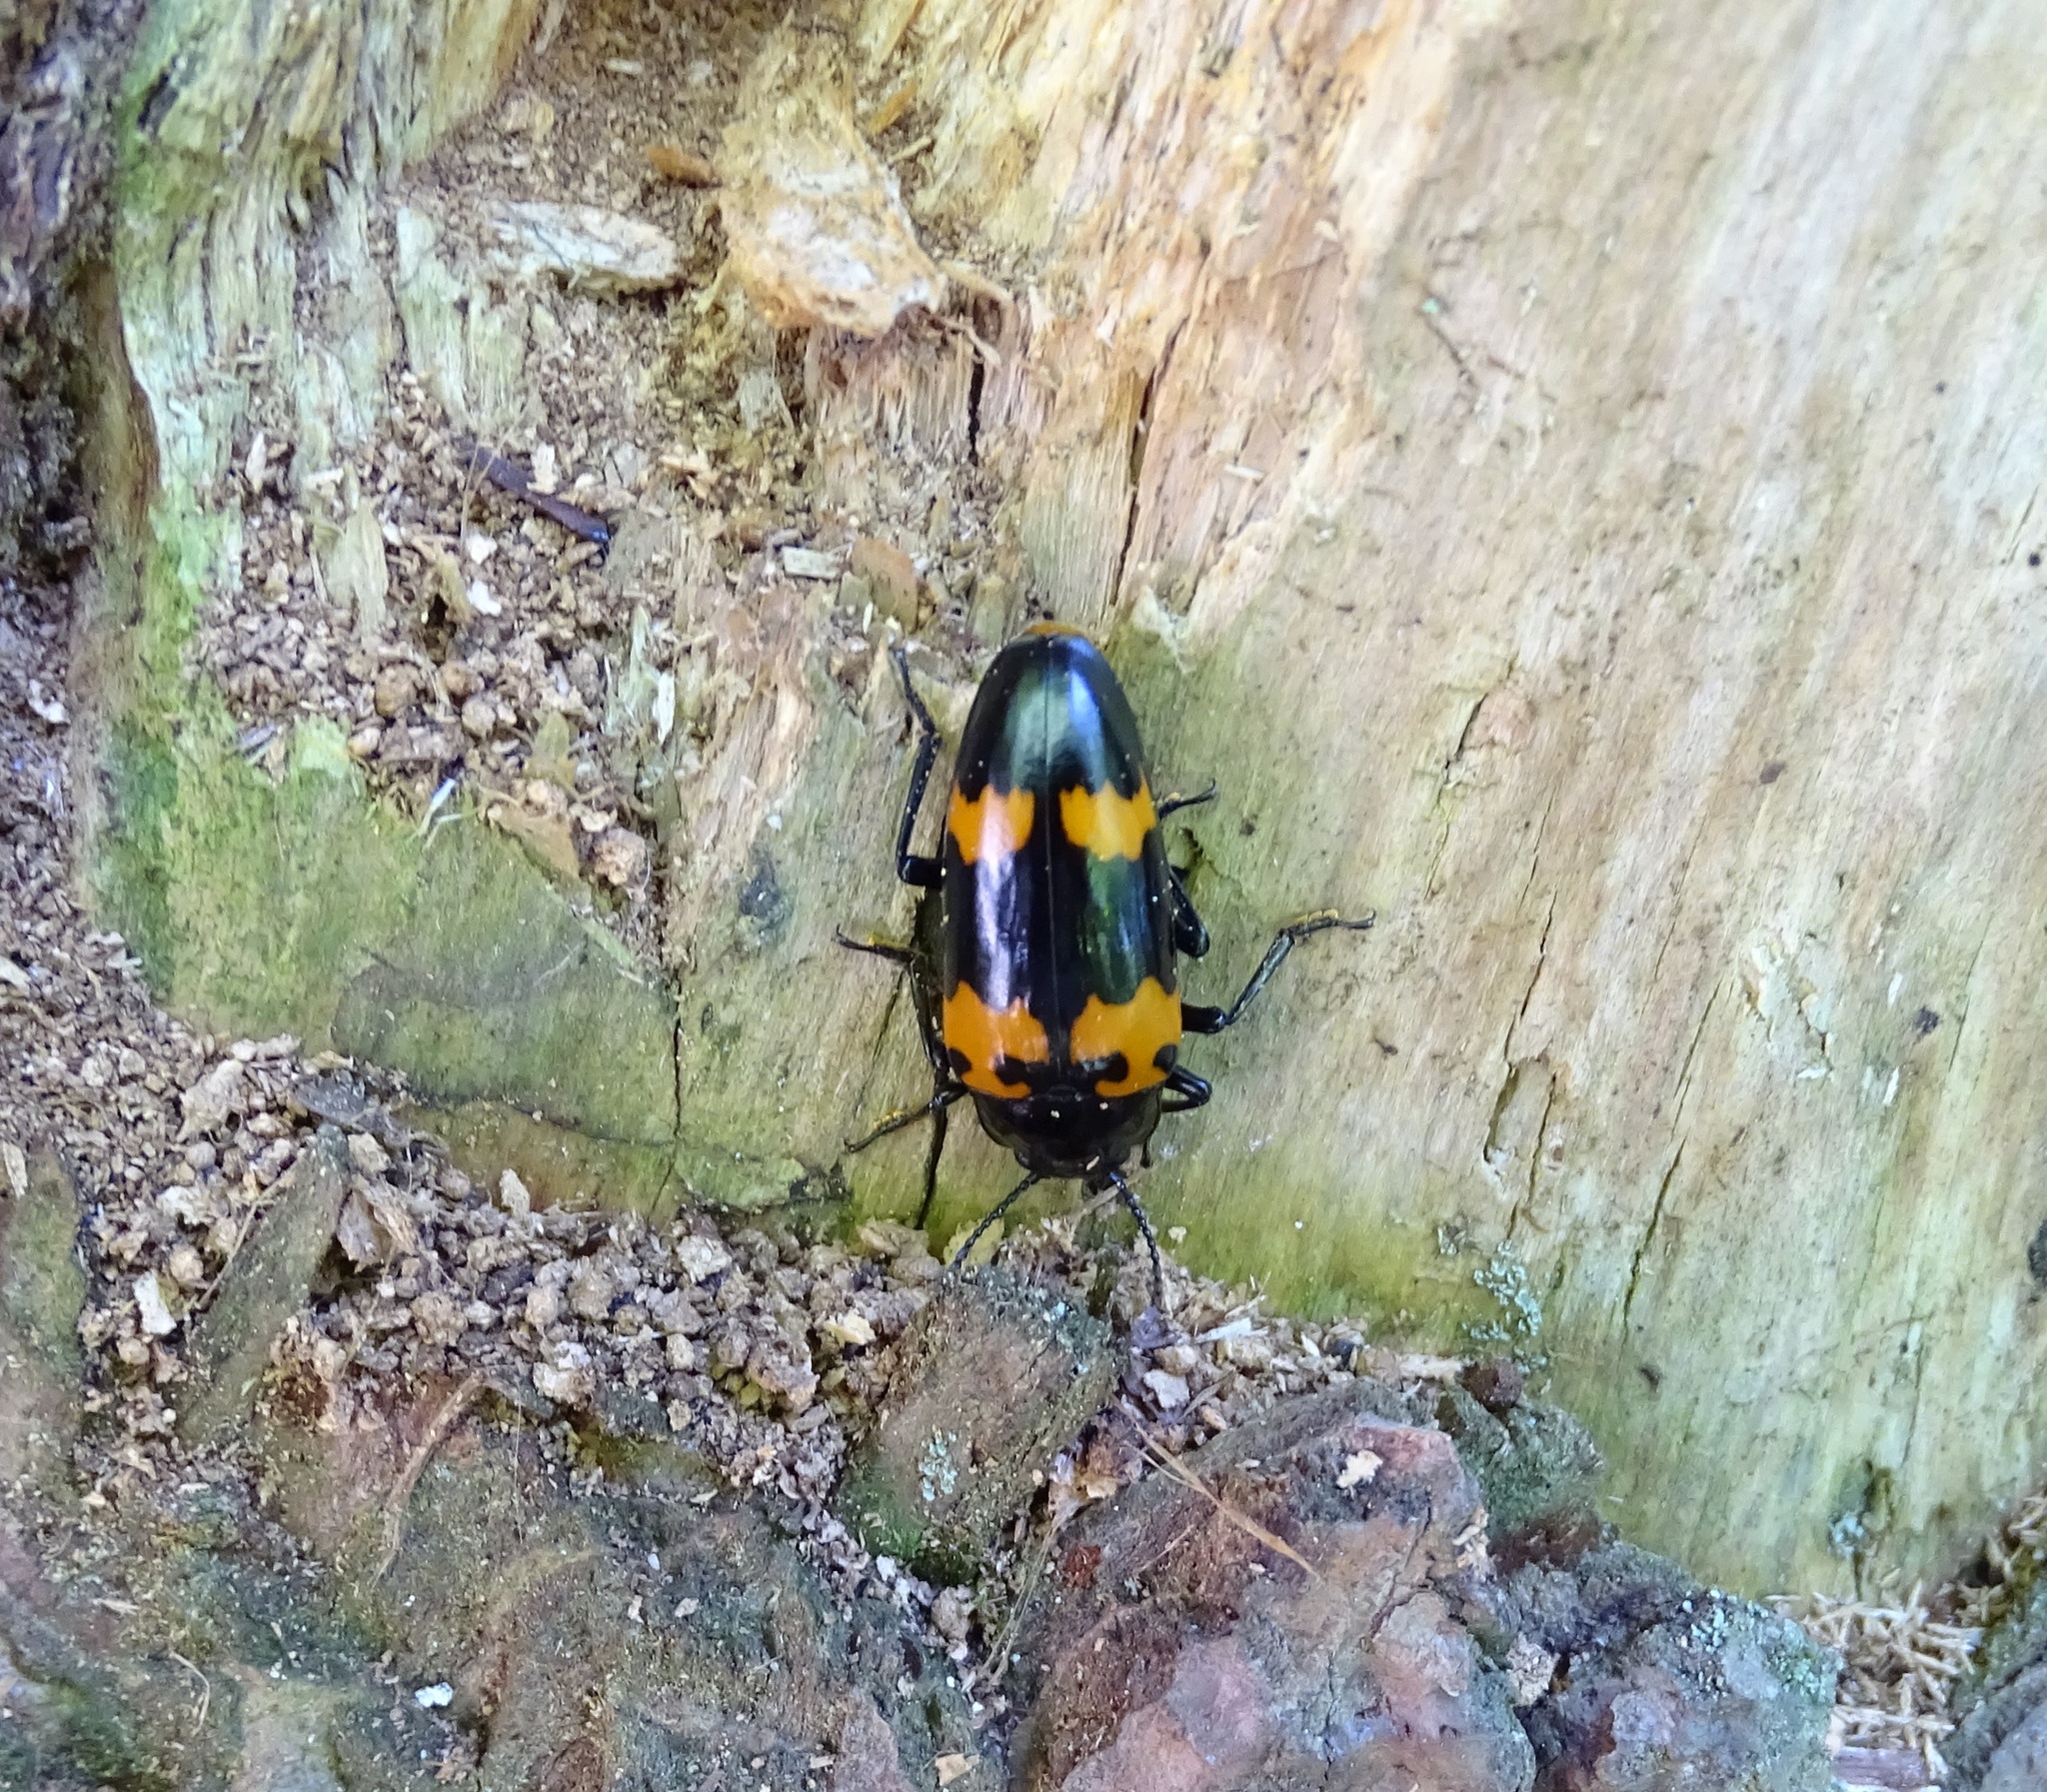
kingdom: Animalia
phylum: Arthropoda
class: Insecta
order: Coleoptera
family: Erotylidae
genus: Megalodacne
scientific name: Megalodacne heros
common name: Pleasing fungus beetle
